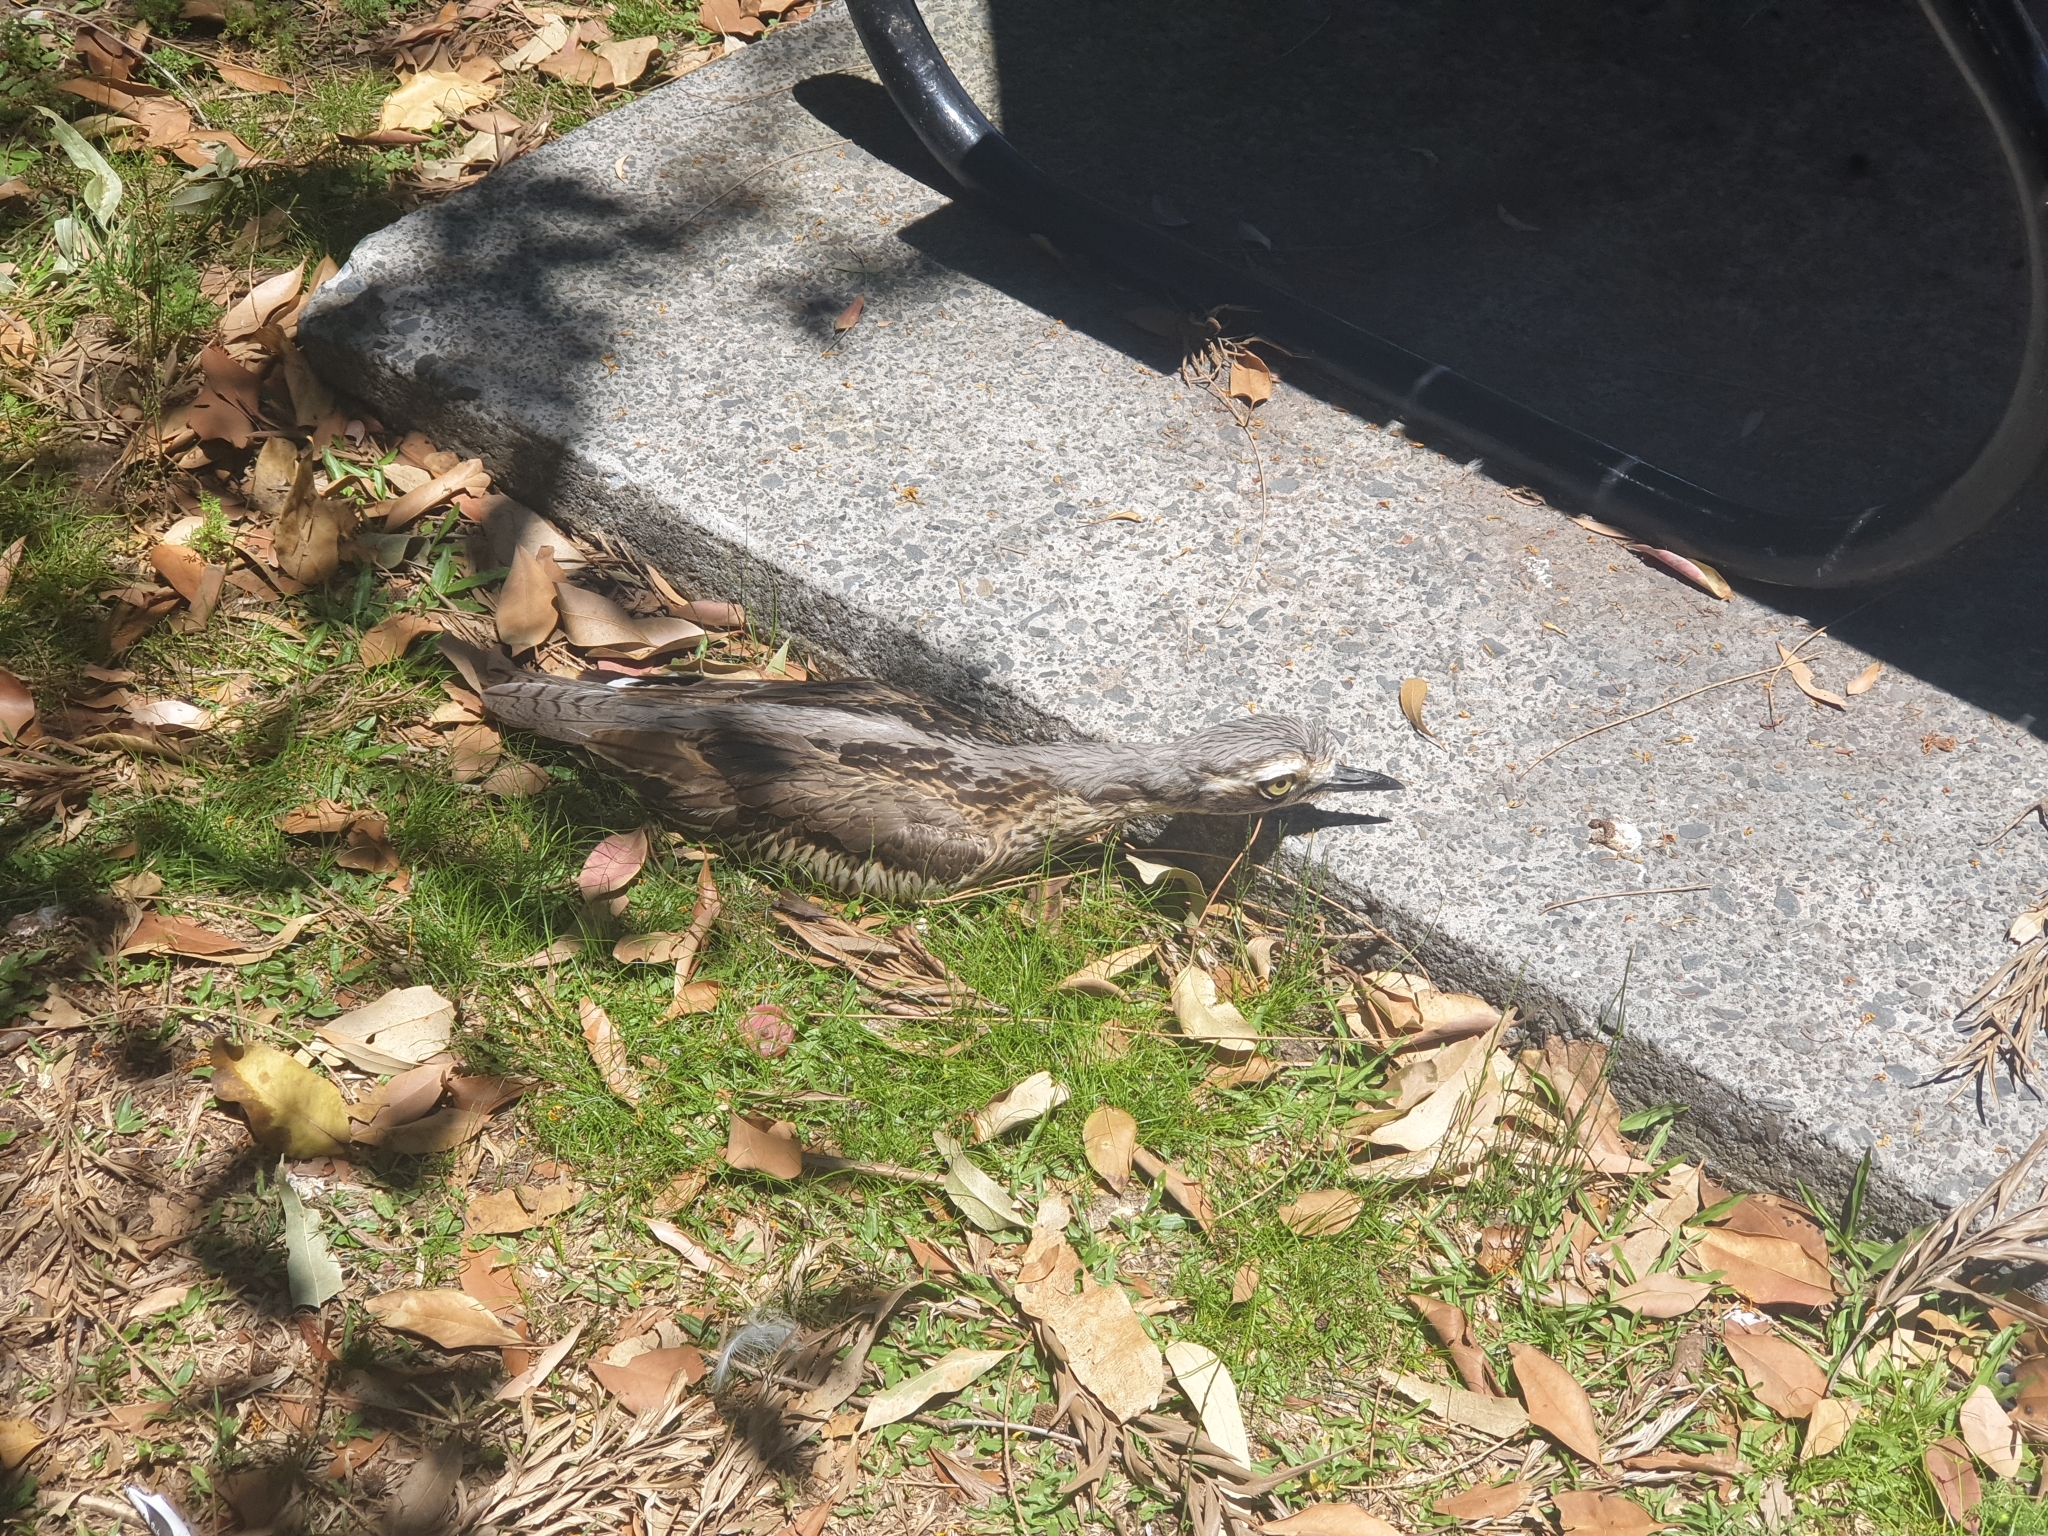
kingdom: Animalia
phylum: Chordata
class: Aves
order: Charadriiformes
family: Burhinidae
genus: Burhinus
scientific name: Burhinus grallarius
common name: Bush stone-curlew
